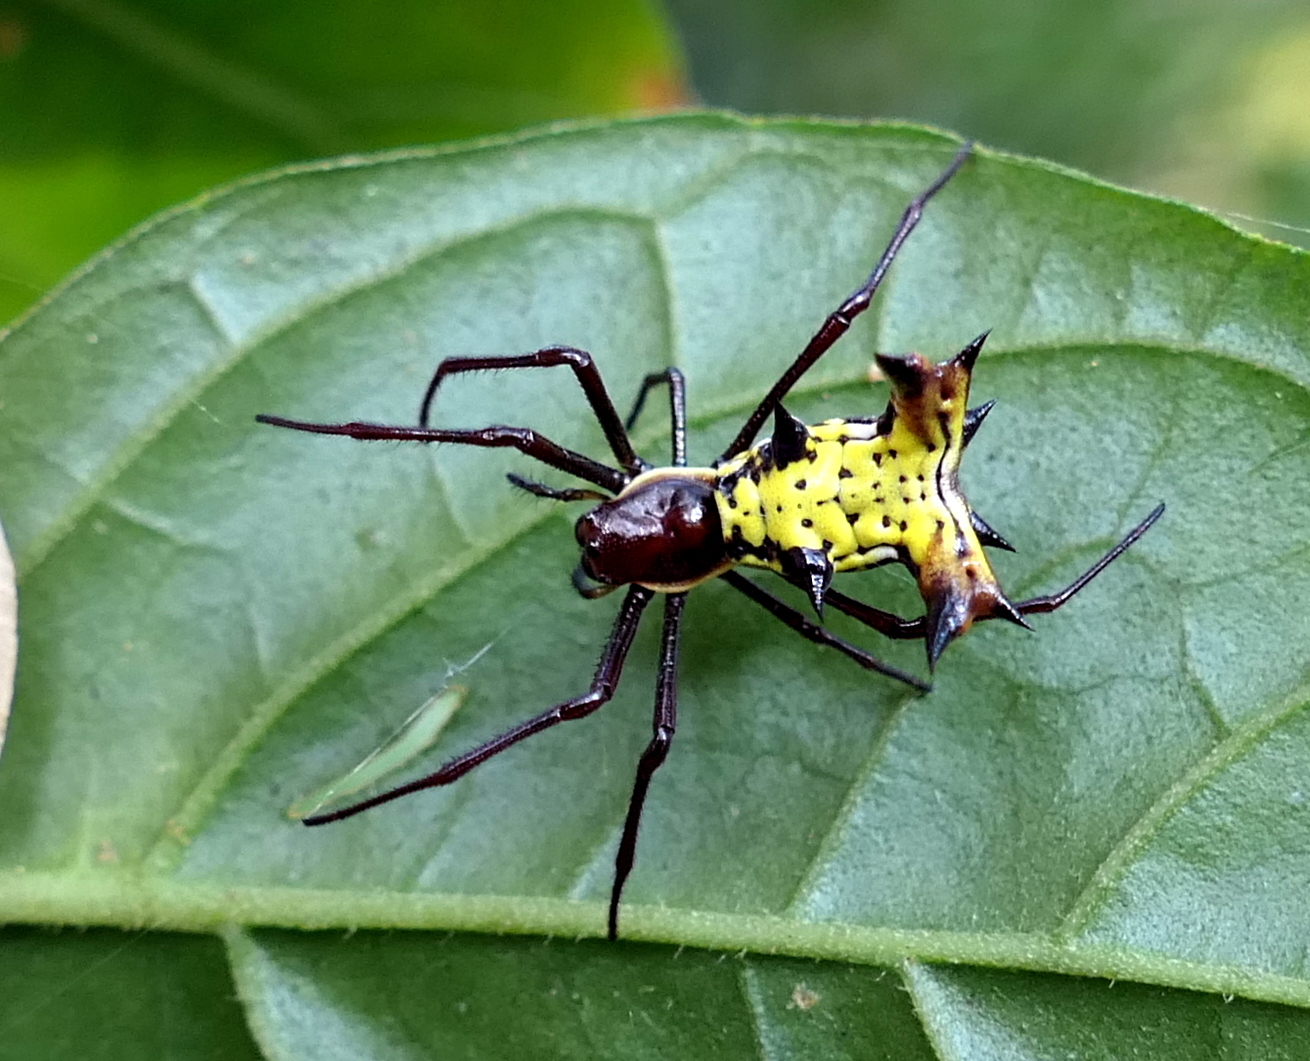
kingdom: Animalia
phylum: Arthropoda
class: Arachnida
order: Araneae
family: Araneidae
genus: Micrathena
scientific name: Micrathena fissispina
